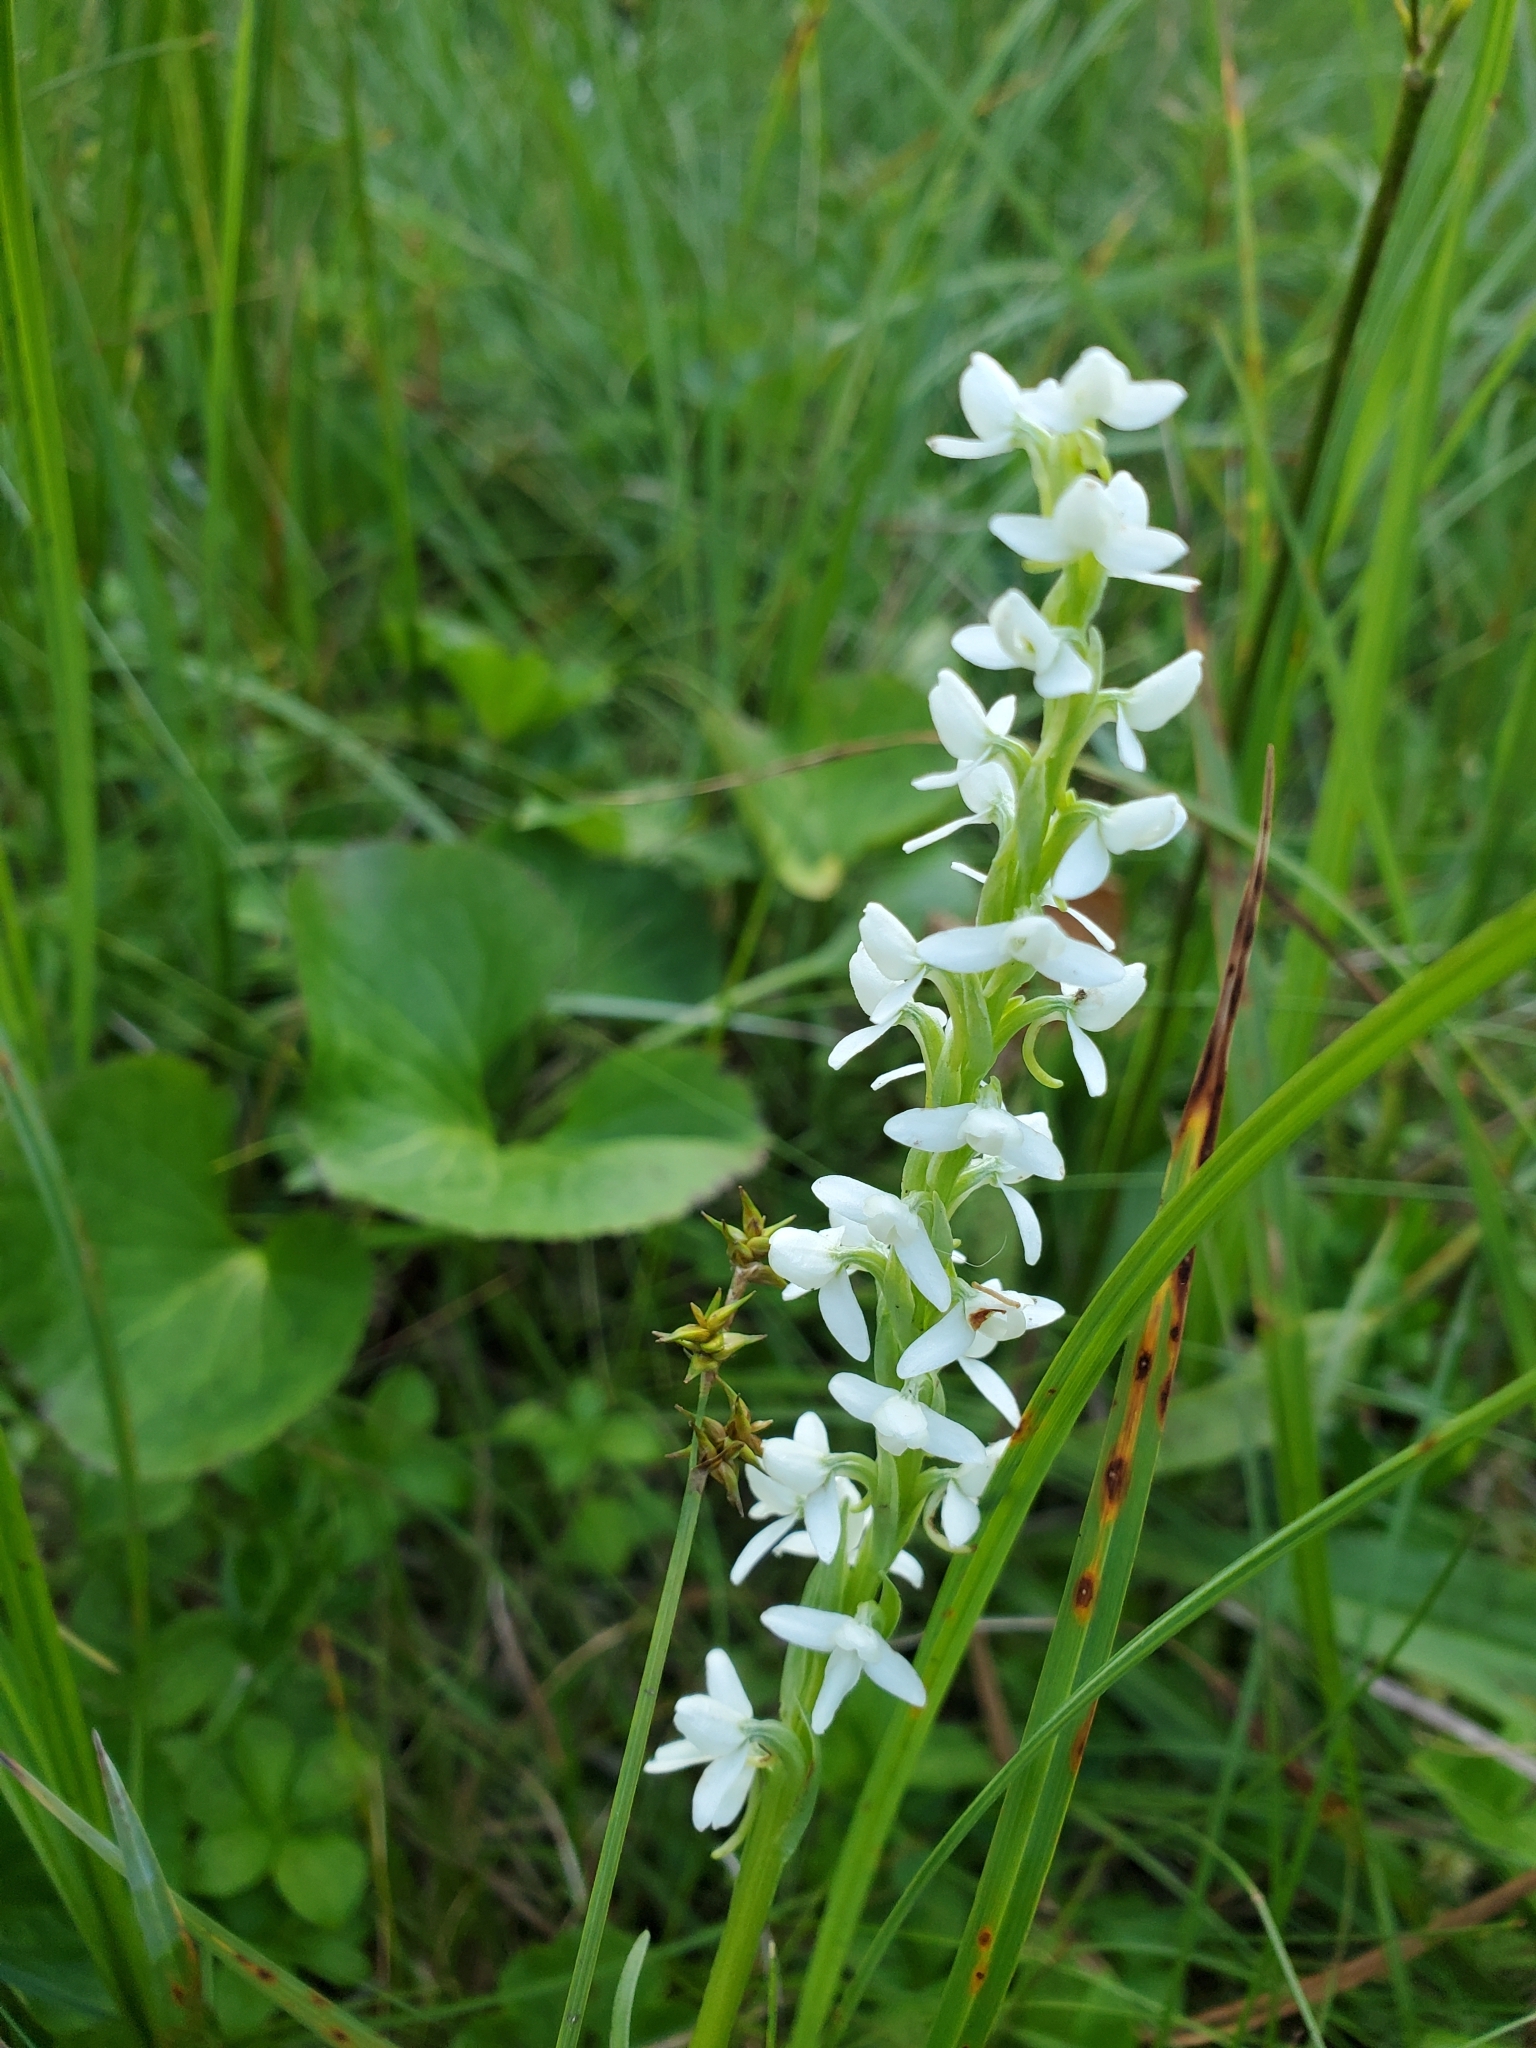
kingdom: Plantae
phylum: Tracheophyta
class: Liliopsida
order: Asparagales
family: Orchidaceae
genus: Platanthera
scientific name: Platanthera dilatata
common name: Bog candles
